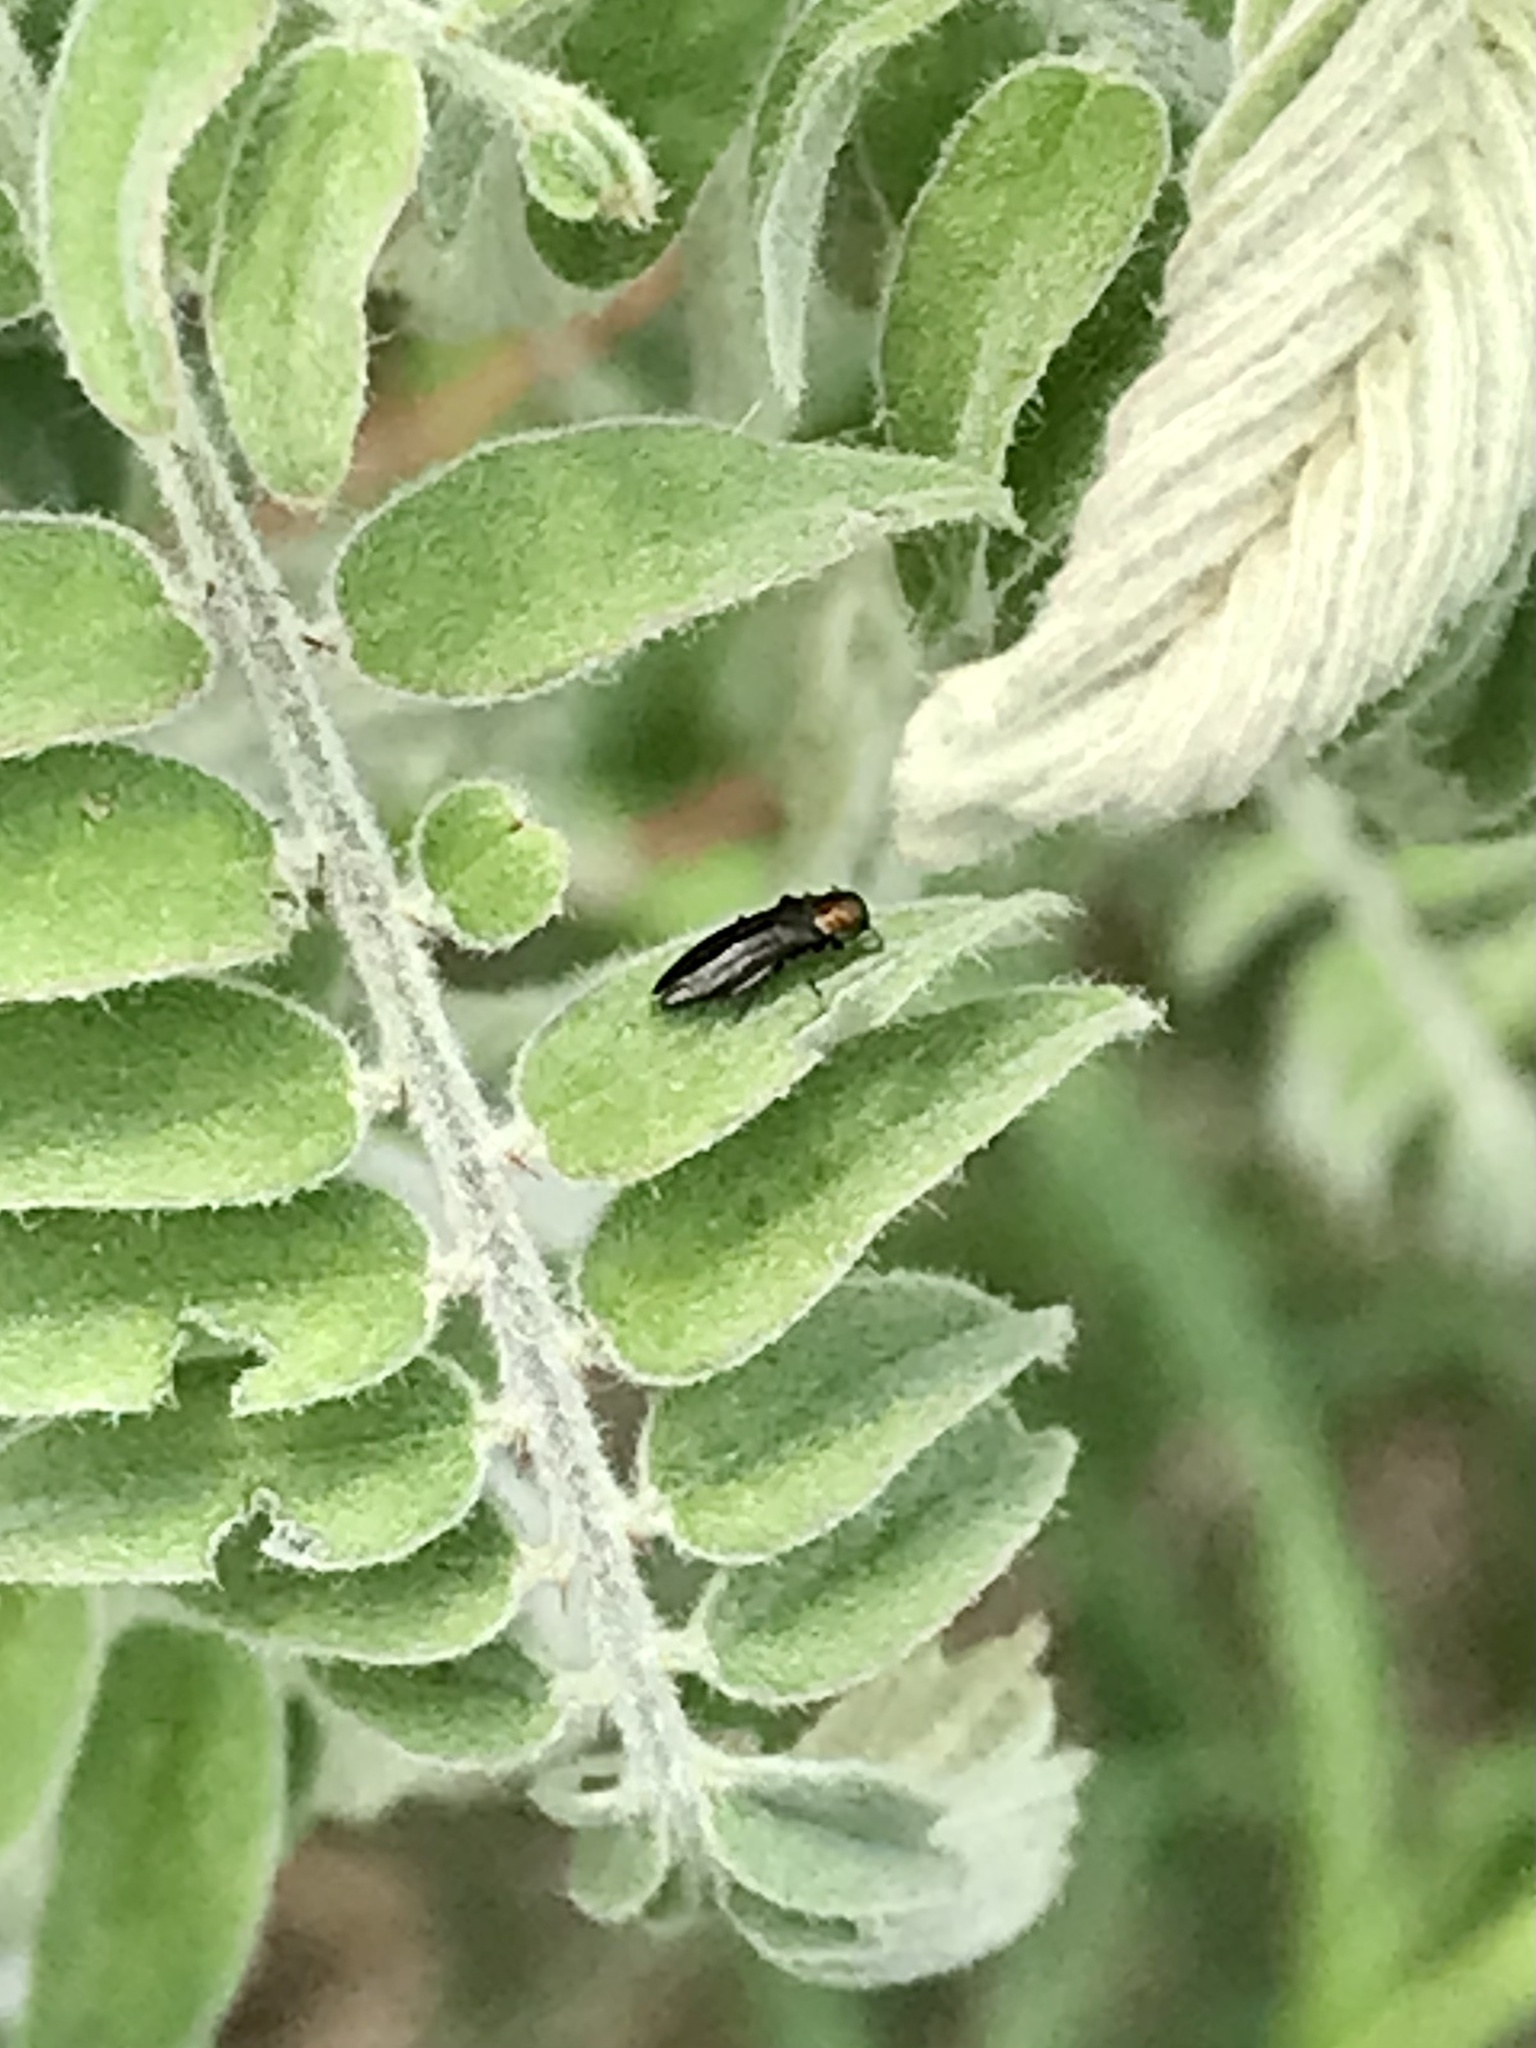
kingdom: Animalia
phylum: Arthropoda
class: Insecta
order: Coleoptera
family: Buprestidae
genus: Agrilus
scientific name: Agrilus parvus
